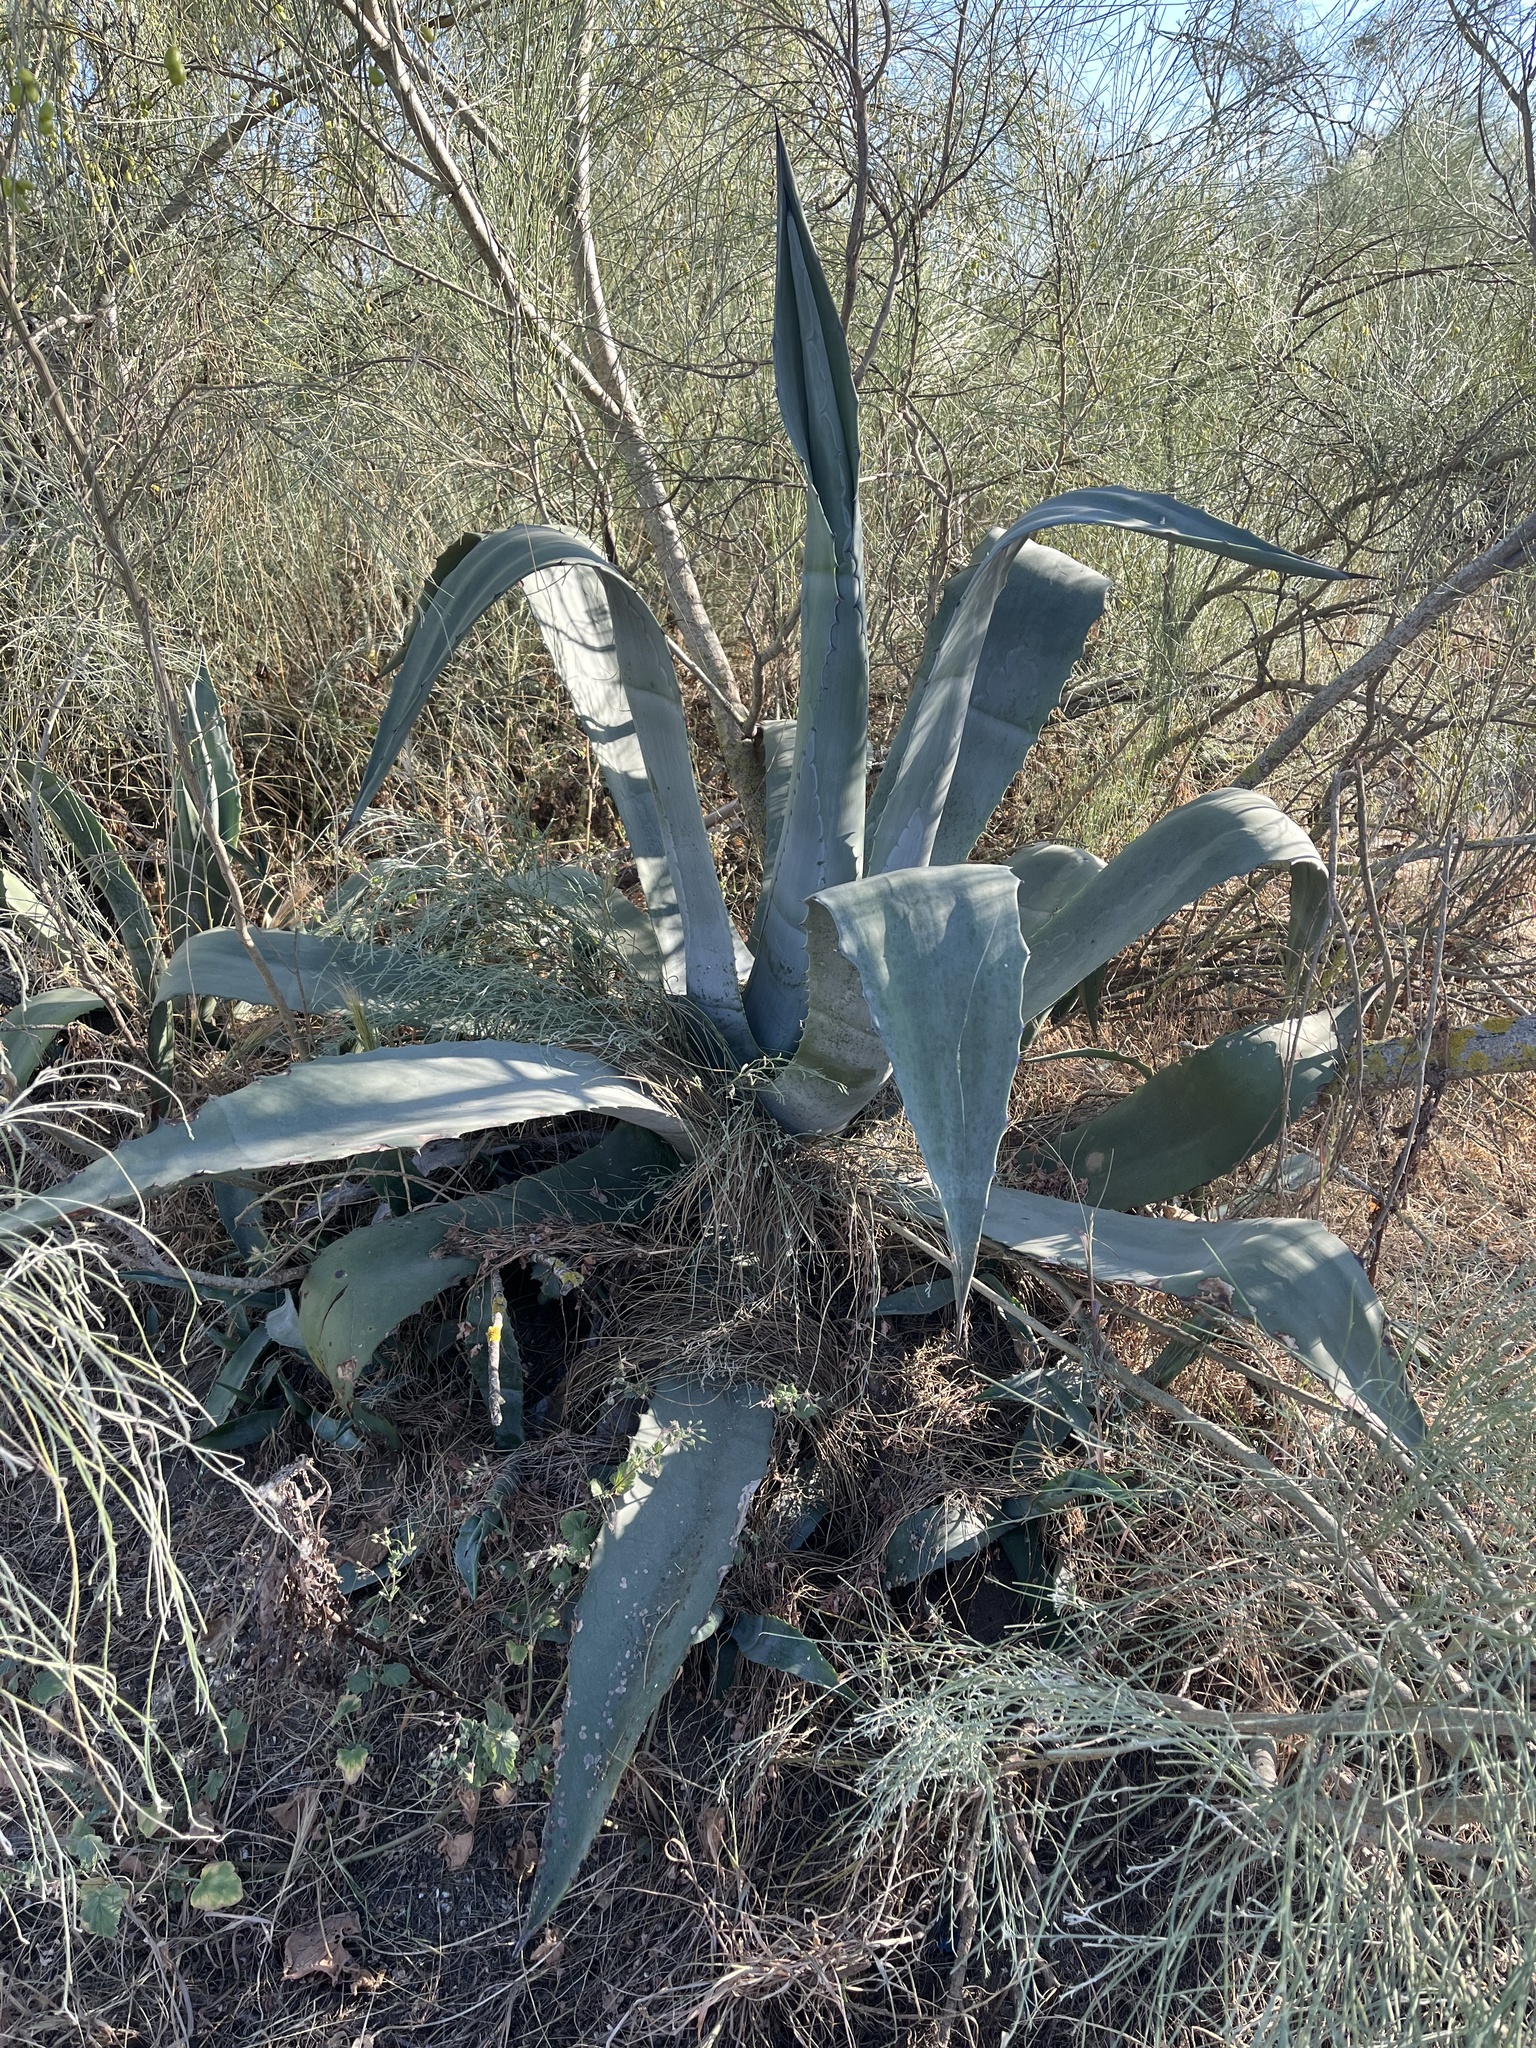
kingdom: Plantae
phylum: Tracheophyta
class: Liliopsida
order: Asparagales
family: Asparagaceae
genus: Agave
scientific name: Agave americana
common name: Centuryplant
